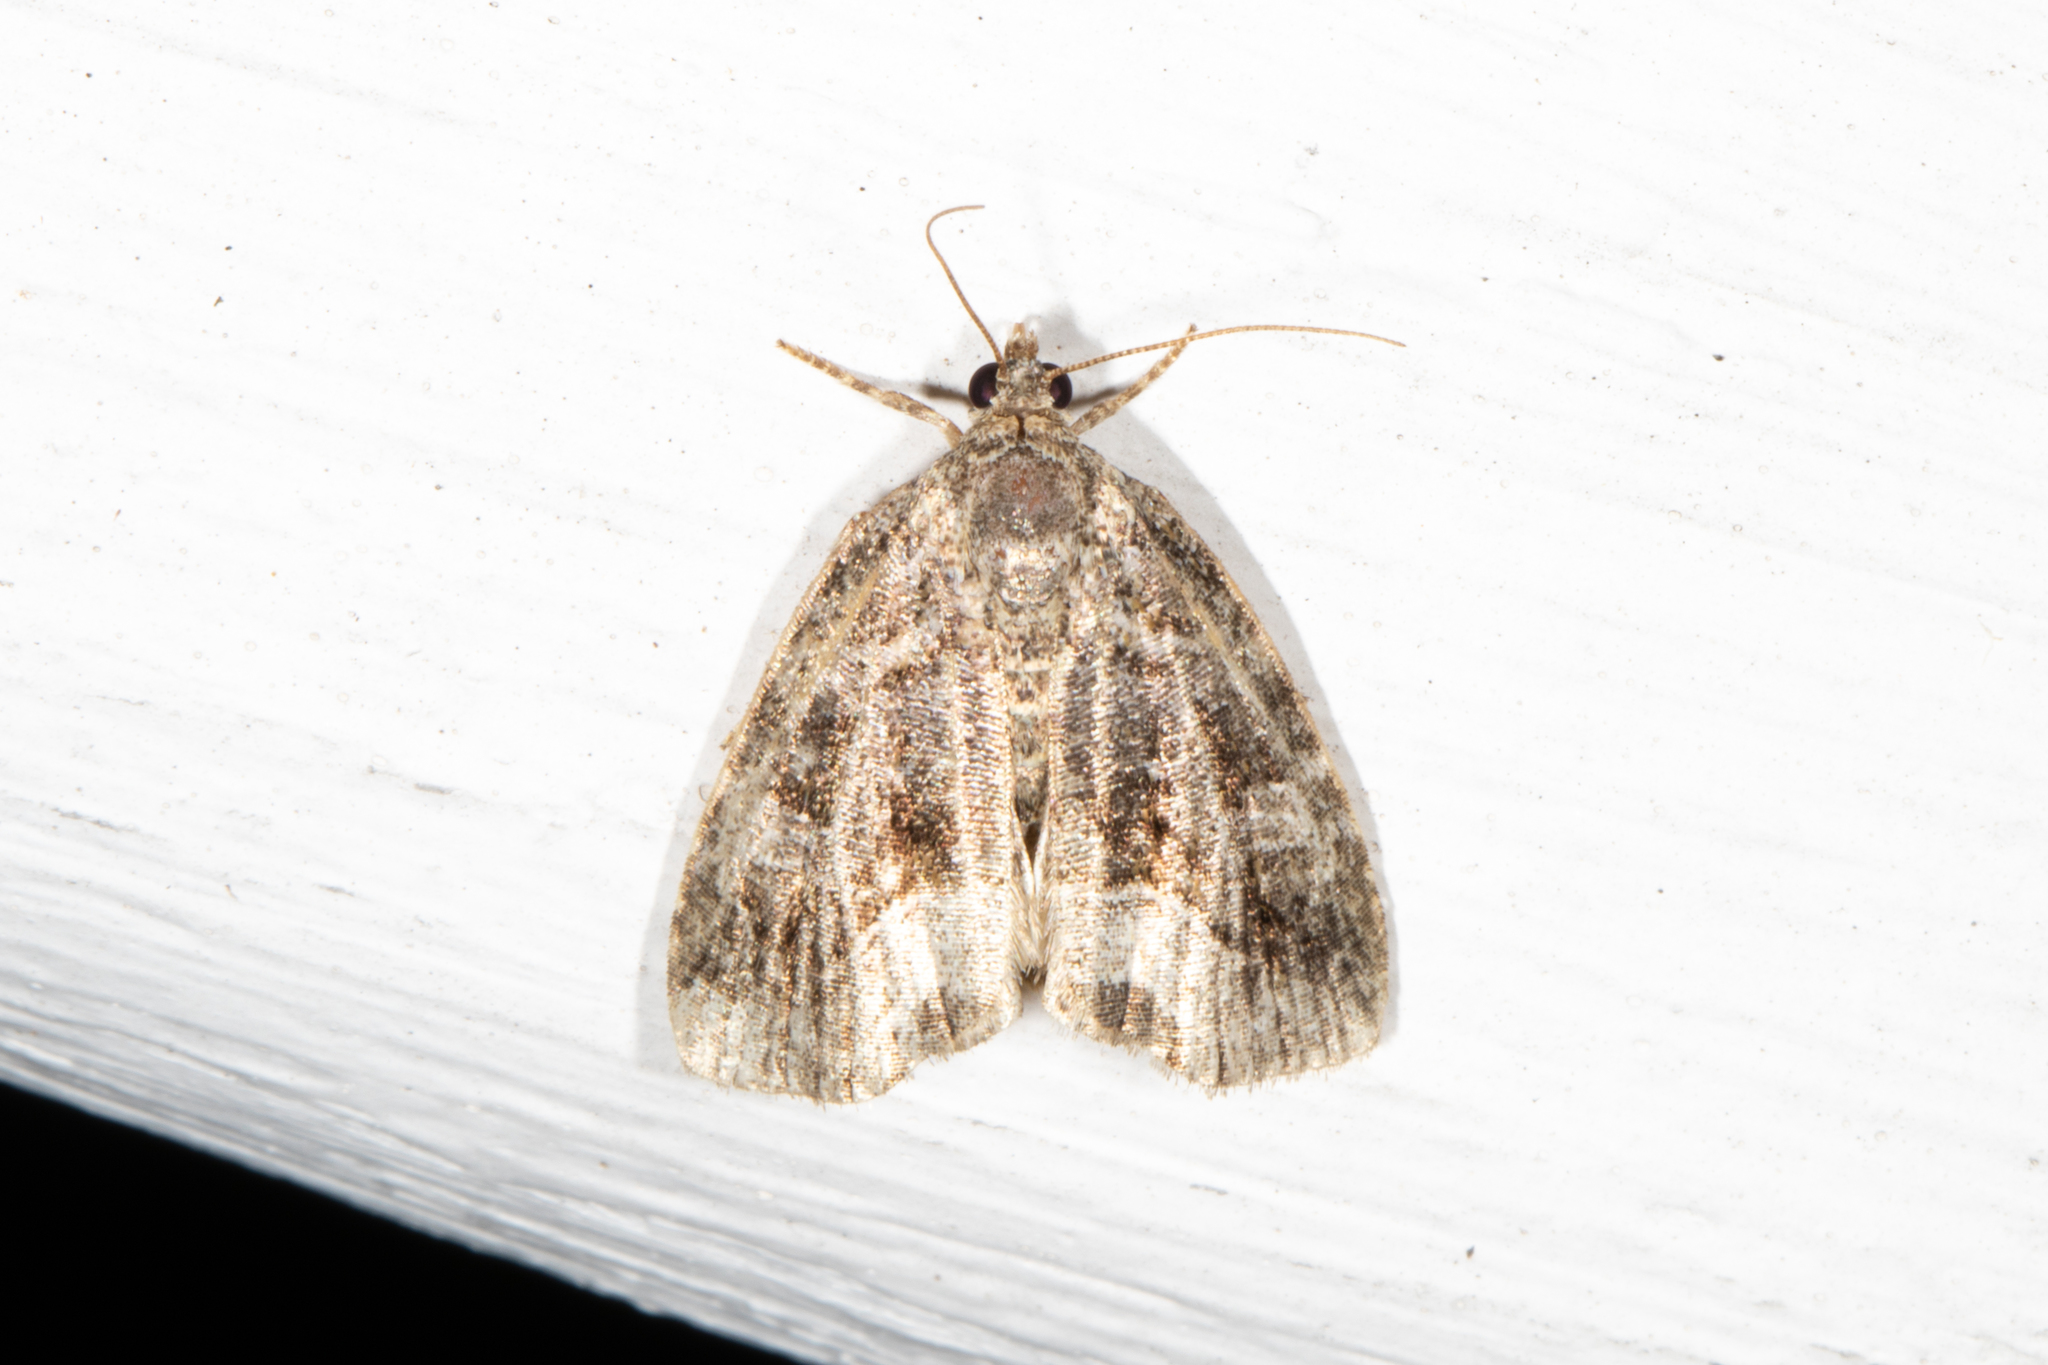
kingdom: Animalia
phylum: Arthropoda
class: Insecta
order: Lepidoptera
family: Noctuidae
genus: Protodeltote
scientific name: Protodeltote muscosula
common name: Large mossy glyph
